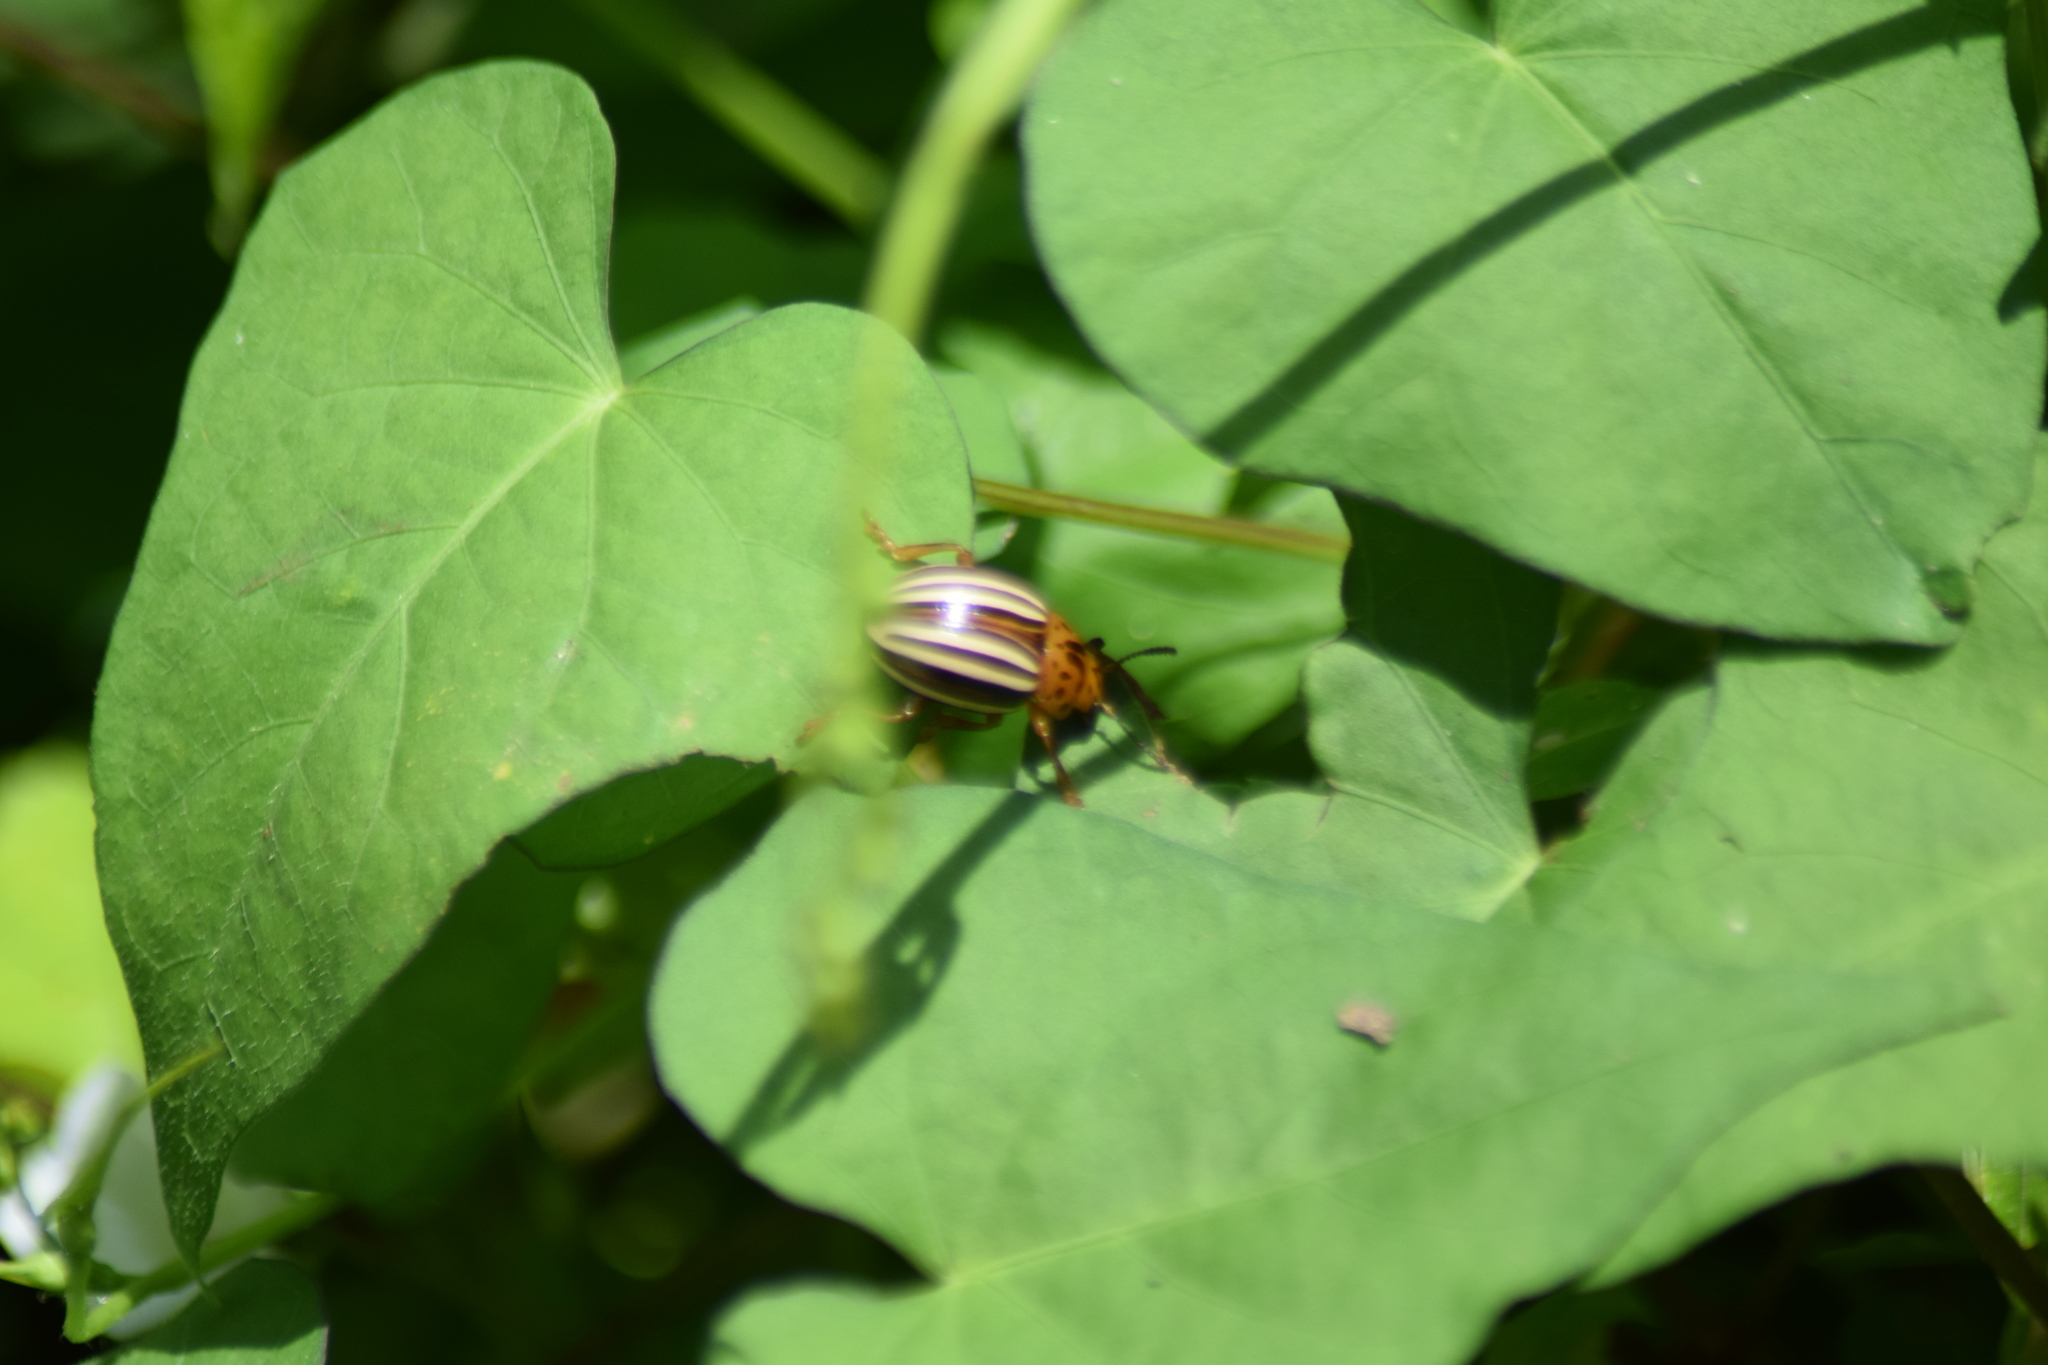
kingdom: Animalia
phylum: Arthropoda
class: Insecta
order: Coleoptera
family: Chrysomelidae
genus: Leptinotarsa
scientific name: Leptinotarsa juncta
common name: False potato beetle
